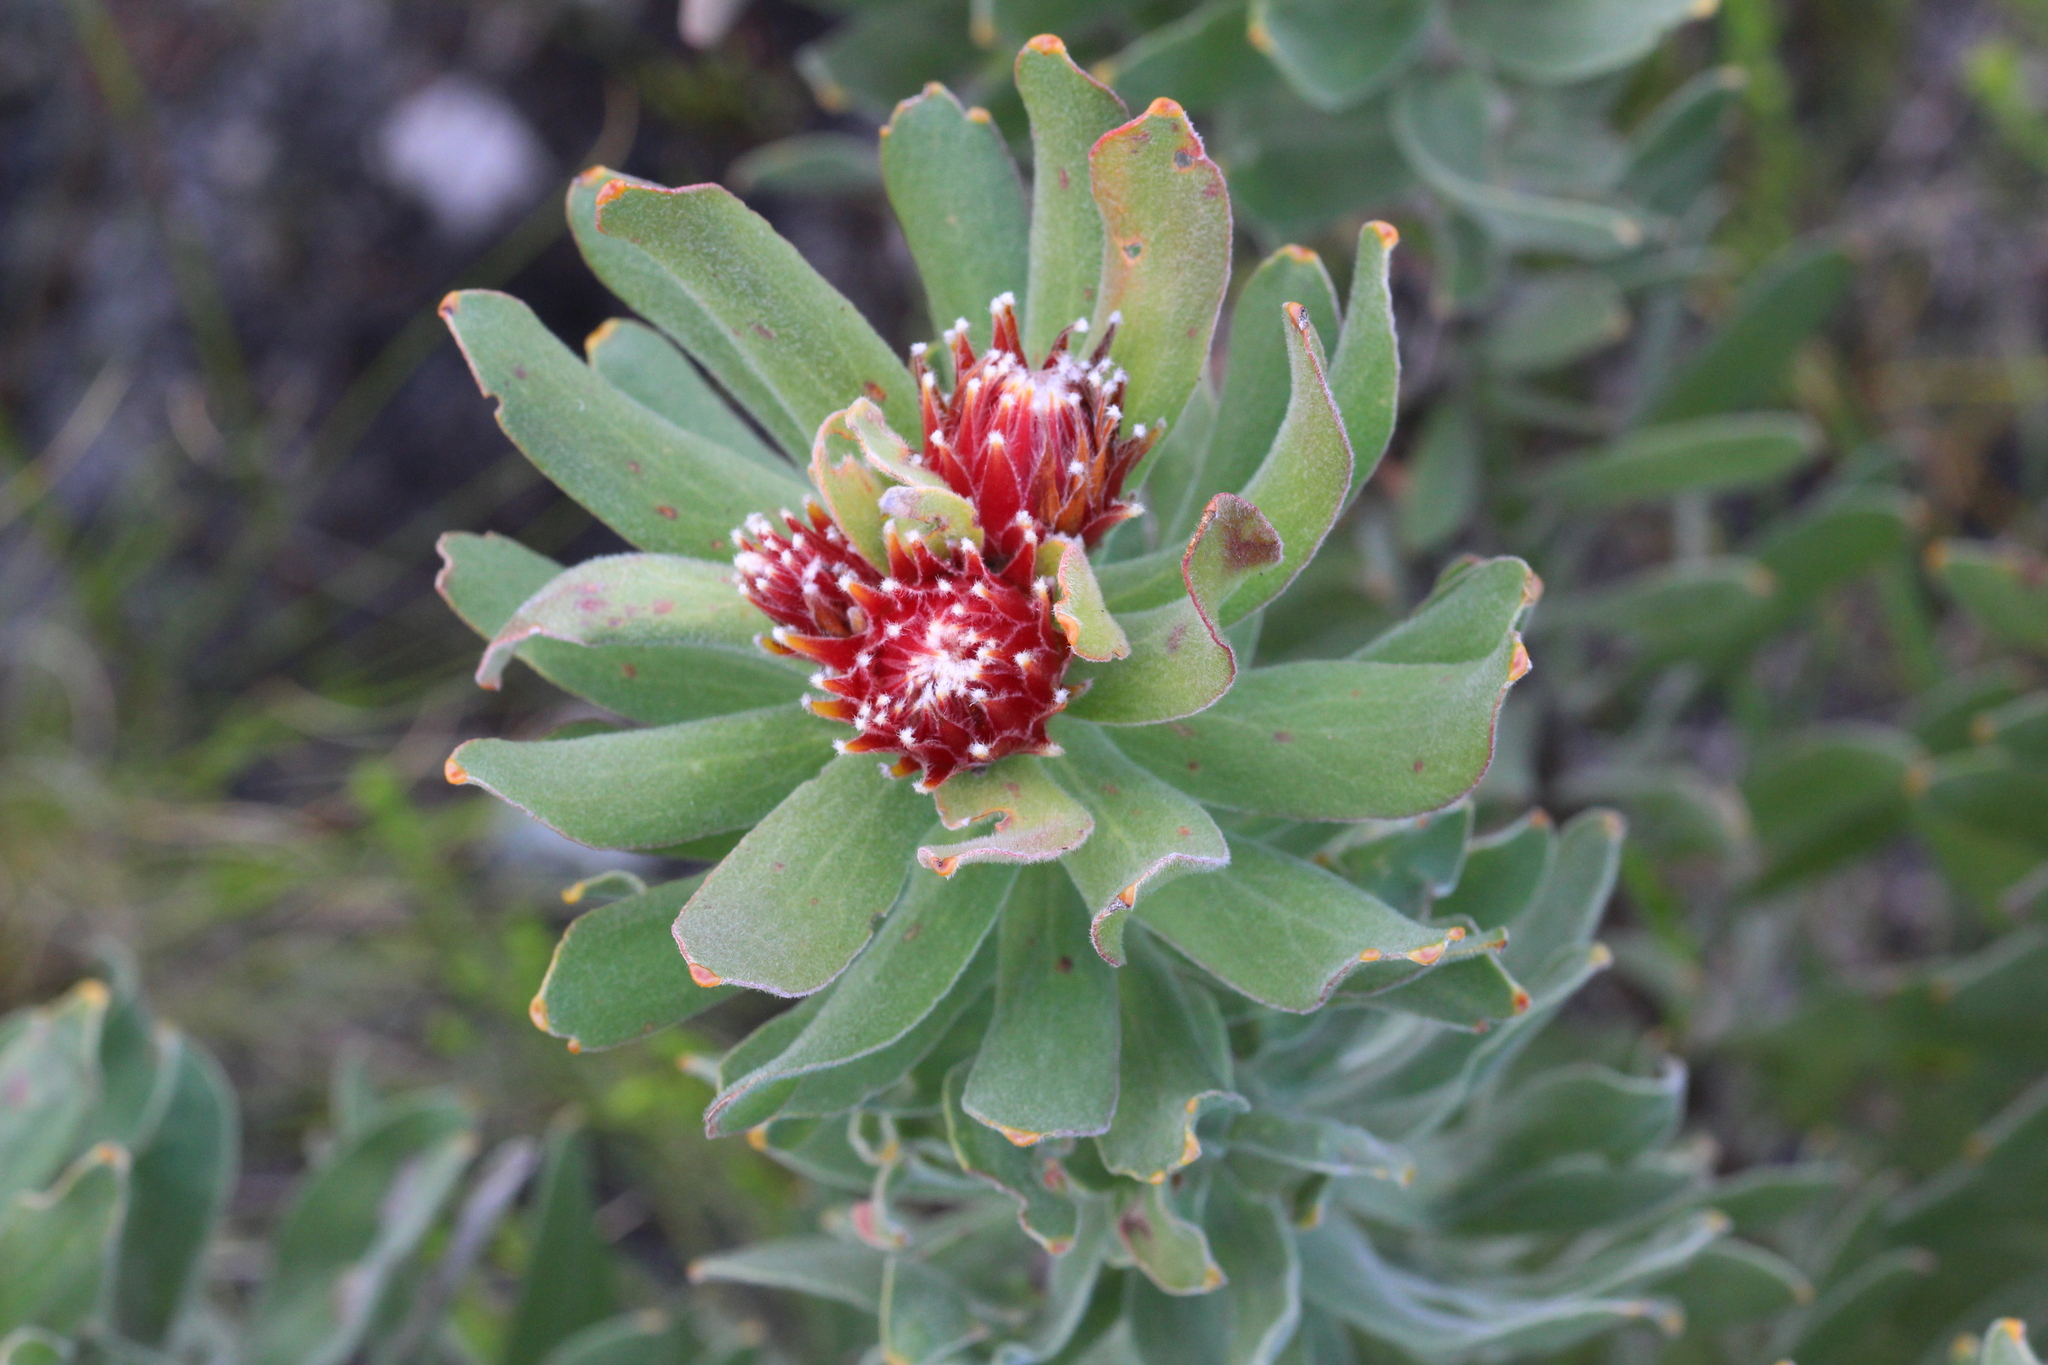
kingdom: Plantae
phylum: Tracheophyta
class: Magnoliopsida
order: Proteales
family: Proteaceae
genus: Leucospermum
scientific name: Leucospermum oleifolium
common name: Matches
